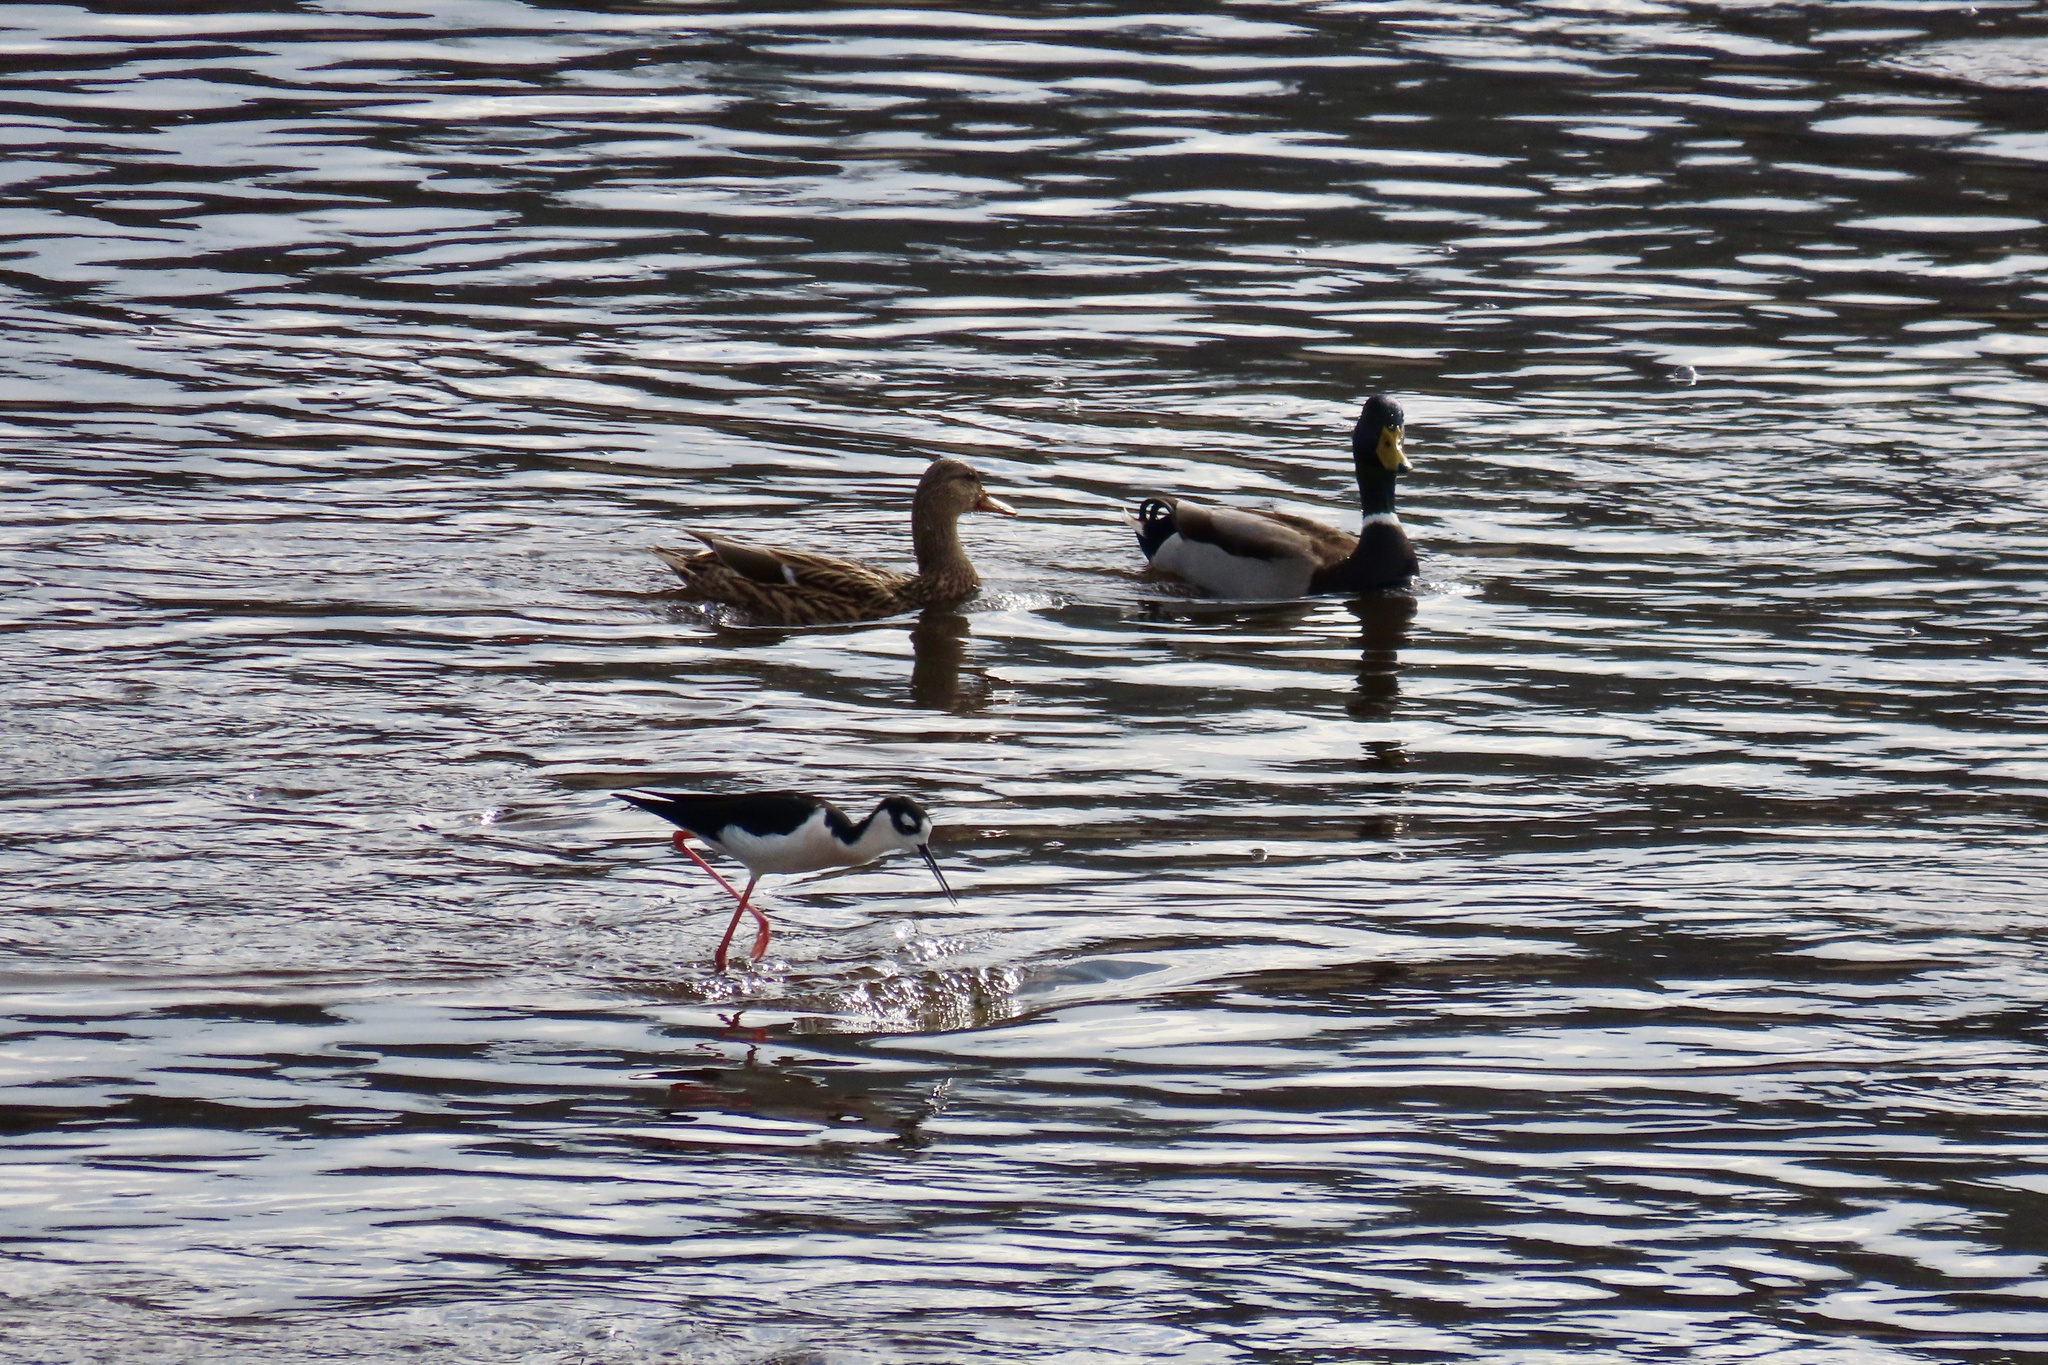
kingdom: Animalia
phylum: Chordata
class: Aves
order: Anseriformes
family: Anatidae
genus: Anas
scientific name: Anas platyrhynchos
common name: Mallard
